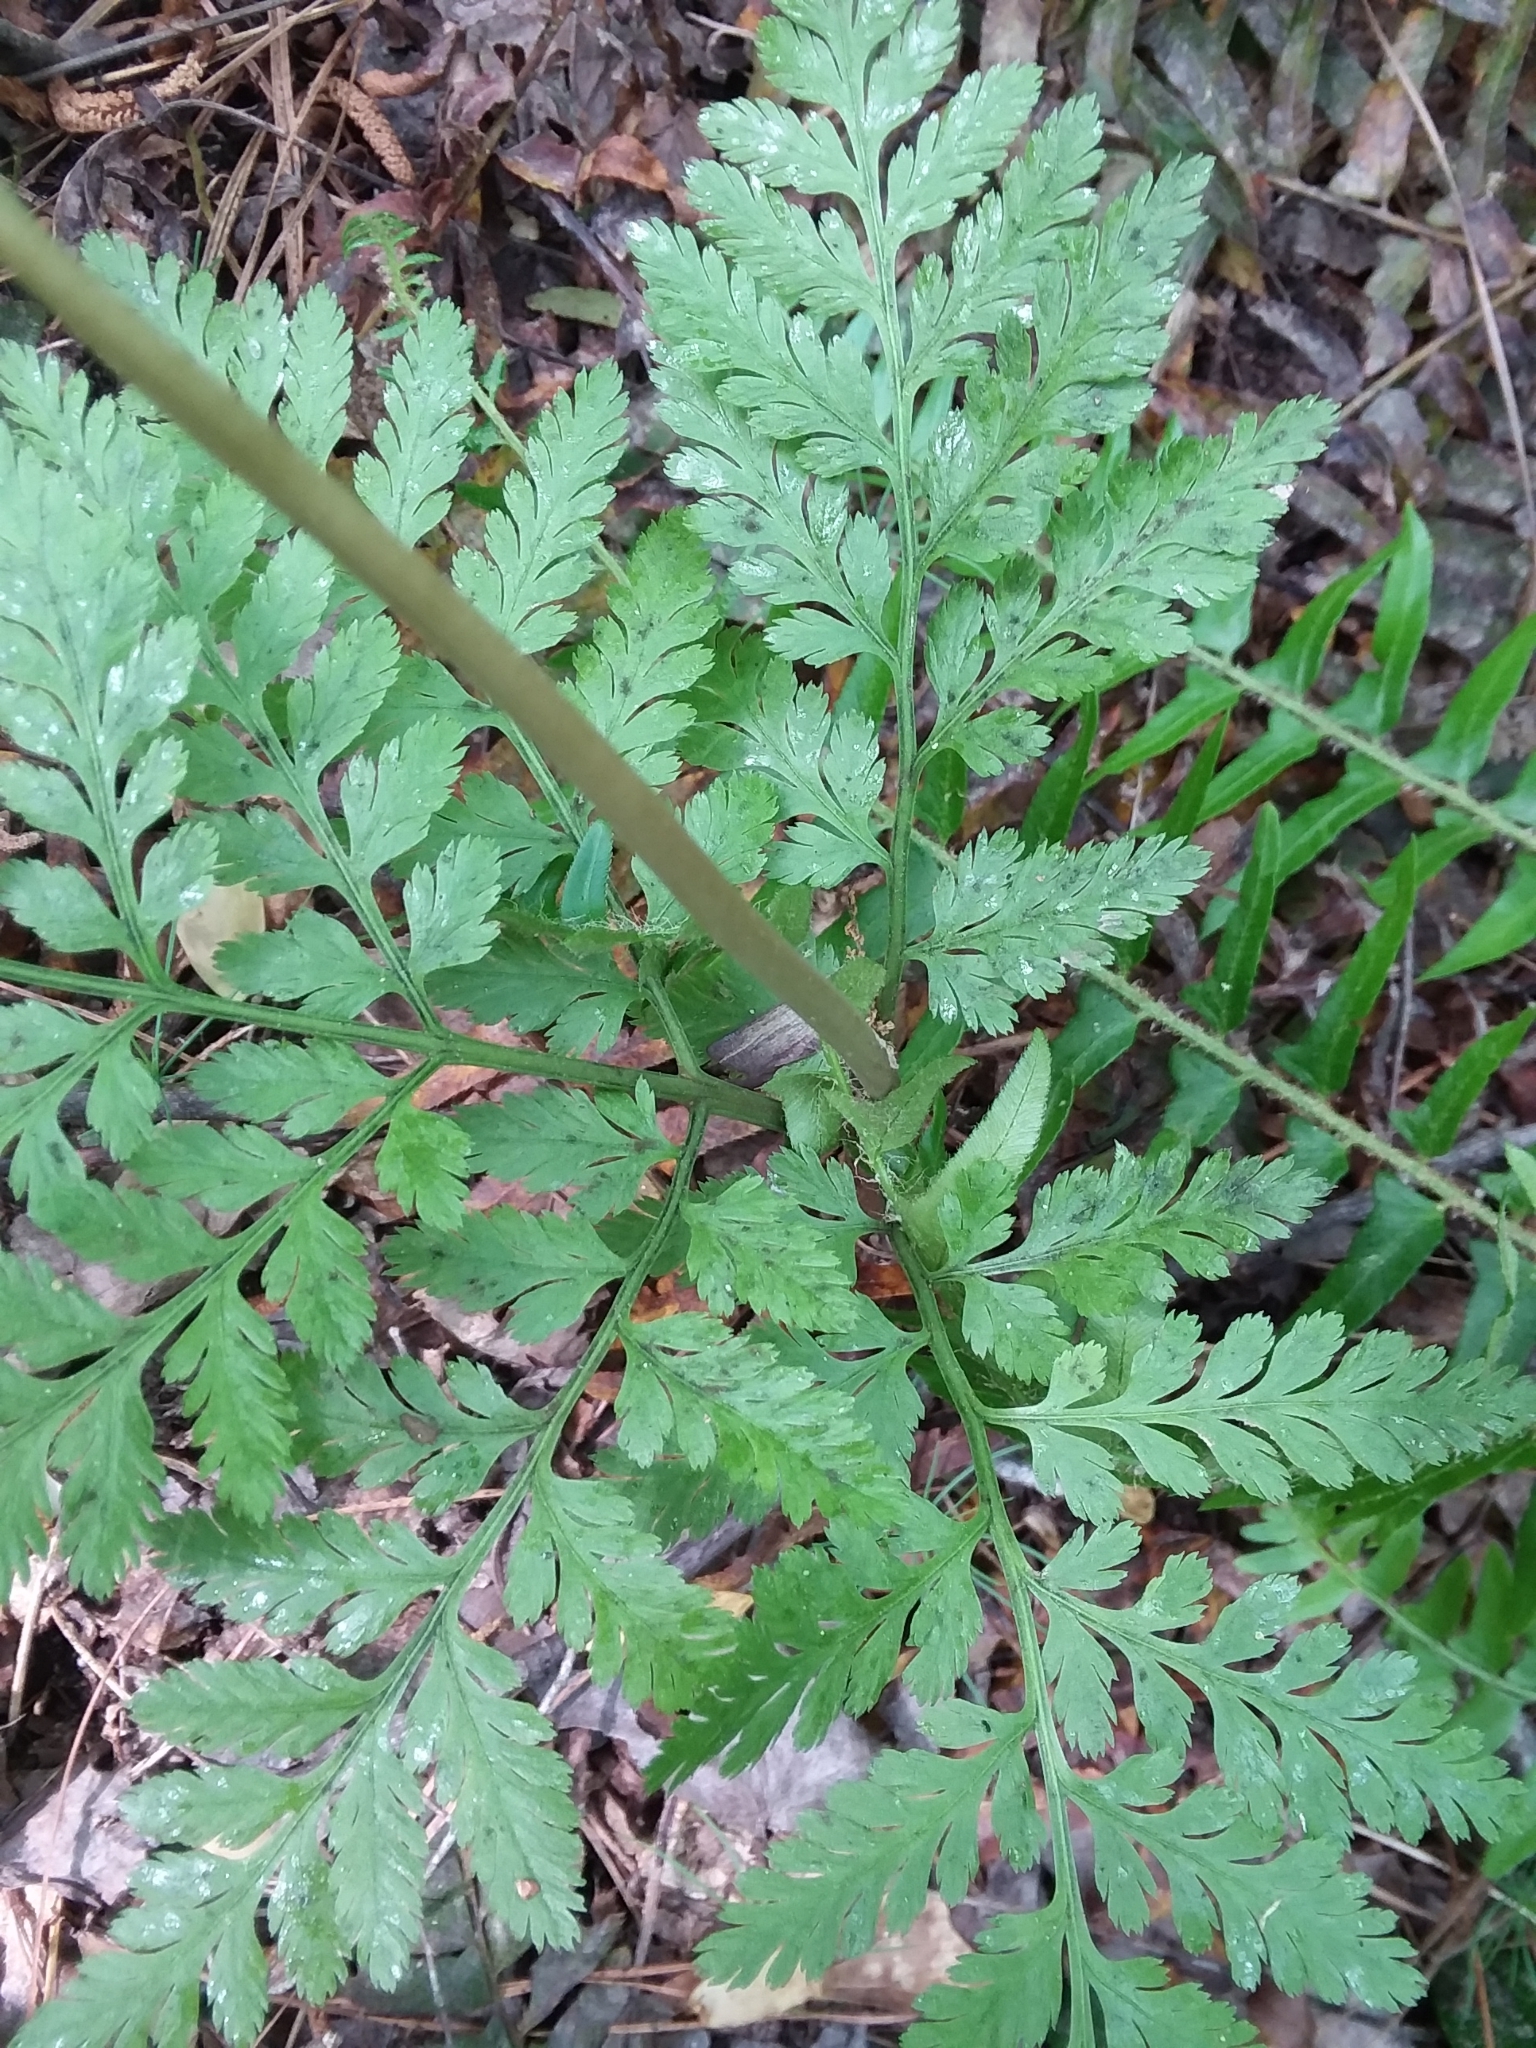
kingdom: Plantae
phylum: Tracheophyta
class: Polypodiopsida
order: Ophioglossales
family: Ophioglossaceae
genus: Botrypus
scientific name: Botrypus virginianus
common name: Common grapefern
